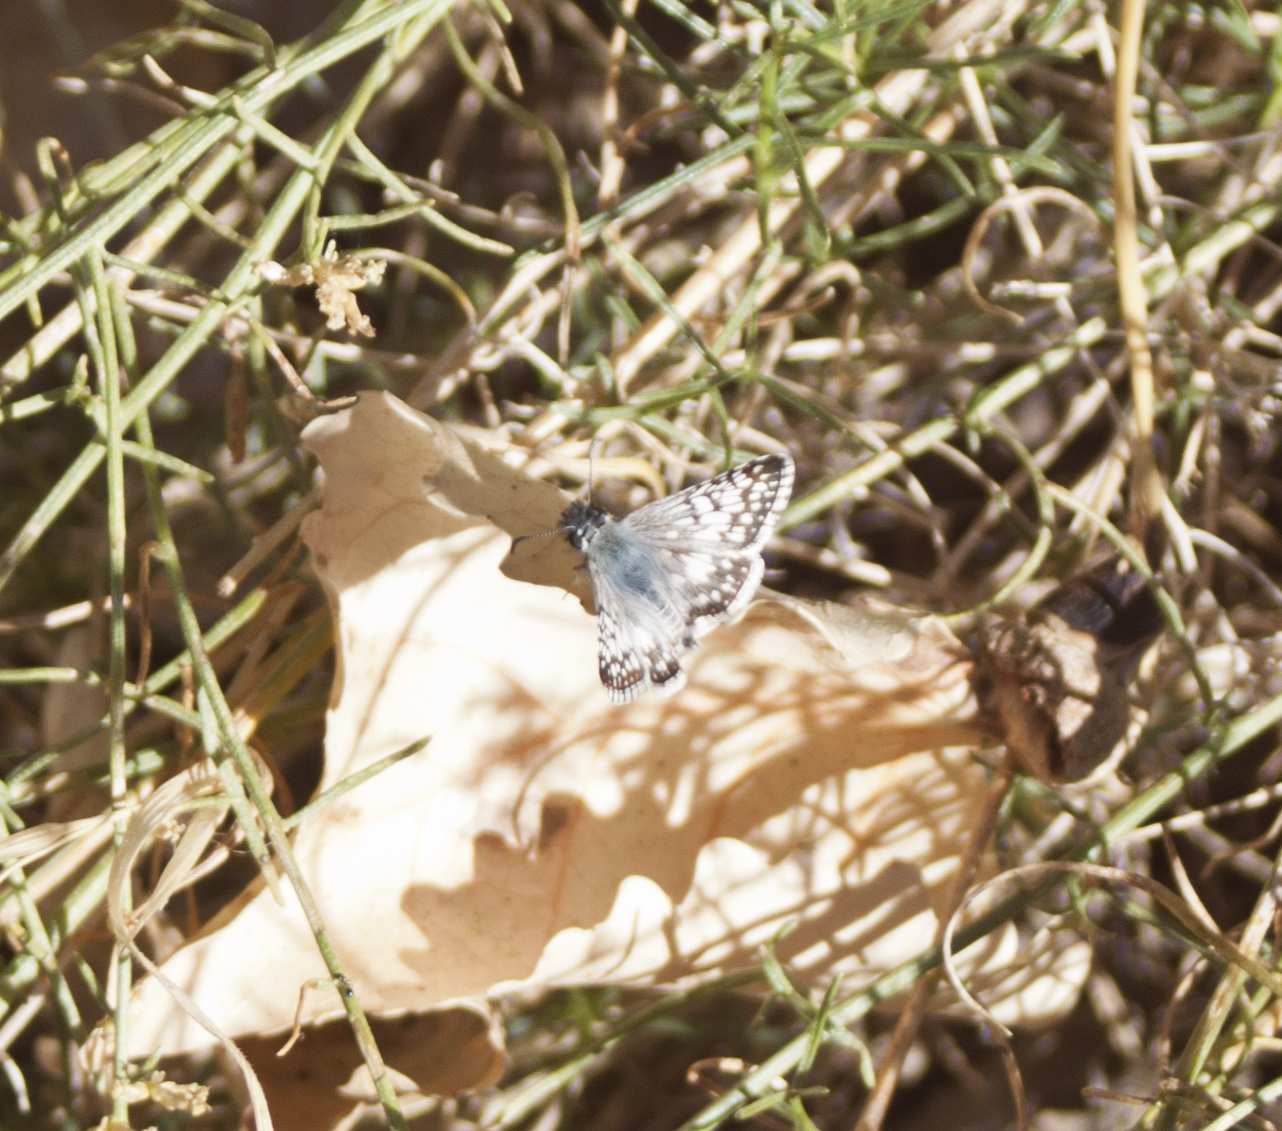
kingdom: Animalia
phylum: Arthropoda
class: Insecta
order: Lepidoptera
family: Hesperiidae
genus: Burnsius
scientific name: Burnsius albezens
